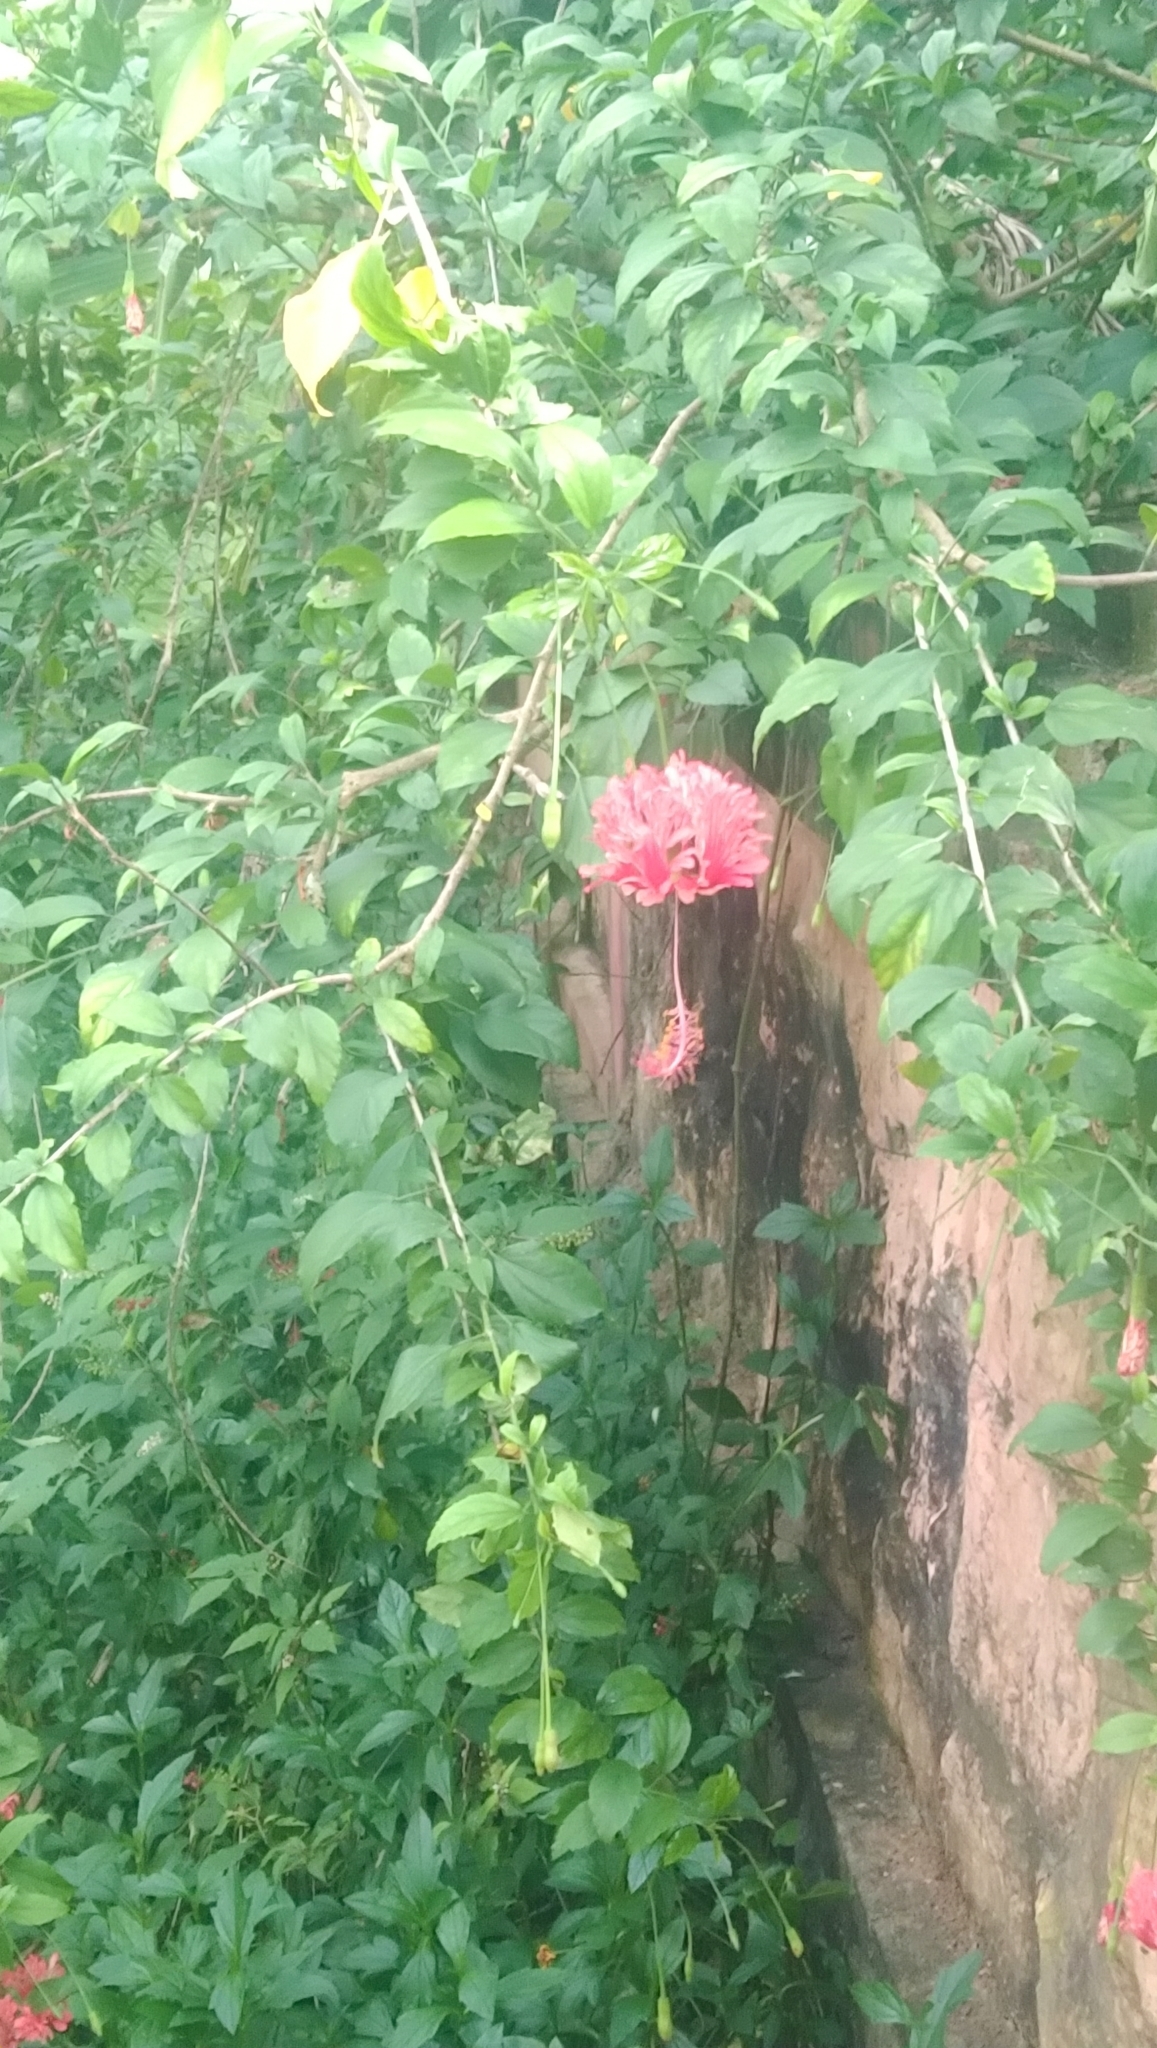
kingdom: Plantae
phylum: Tracheophyta
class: Magnoliopsida
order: Malvales
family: Malvaceae
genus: Hibiscus
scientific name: Hibiscus schizopetalus
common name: Fringed rosemallow
